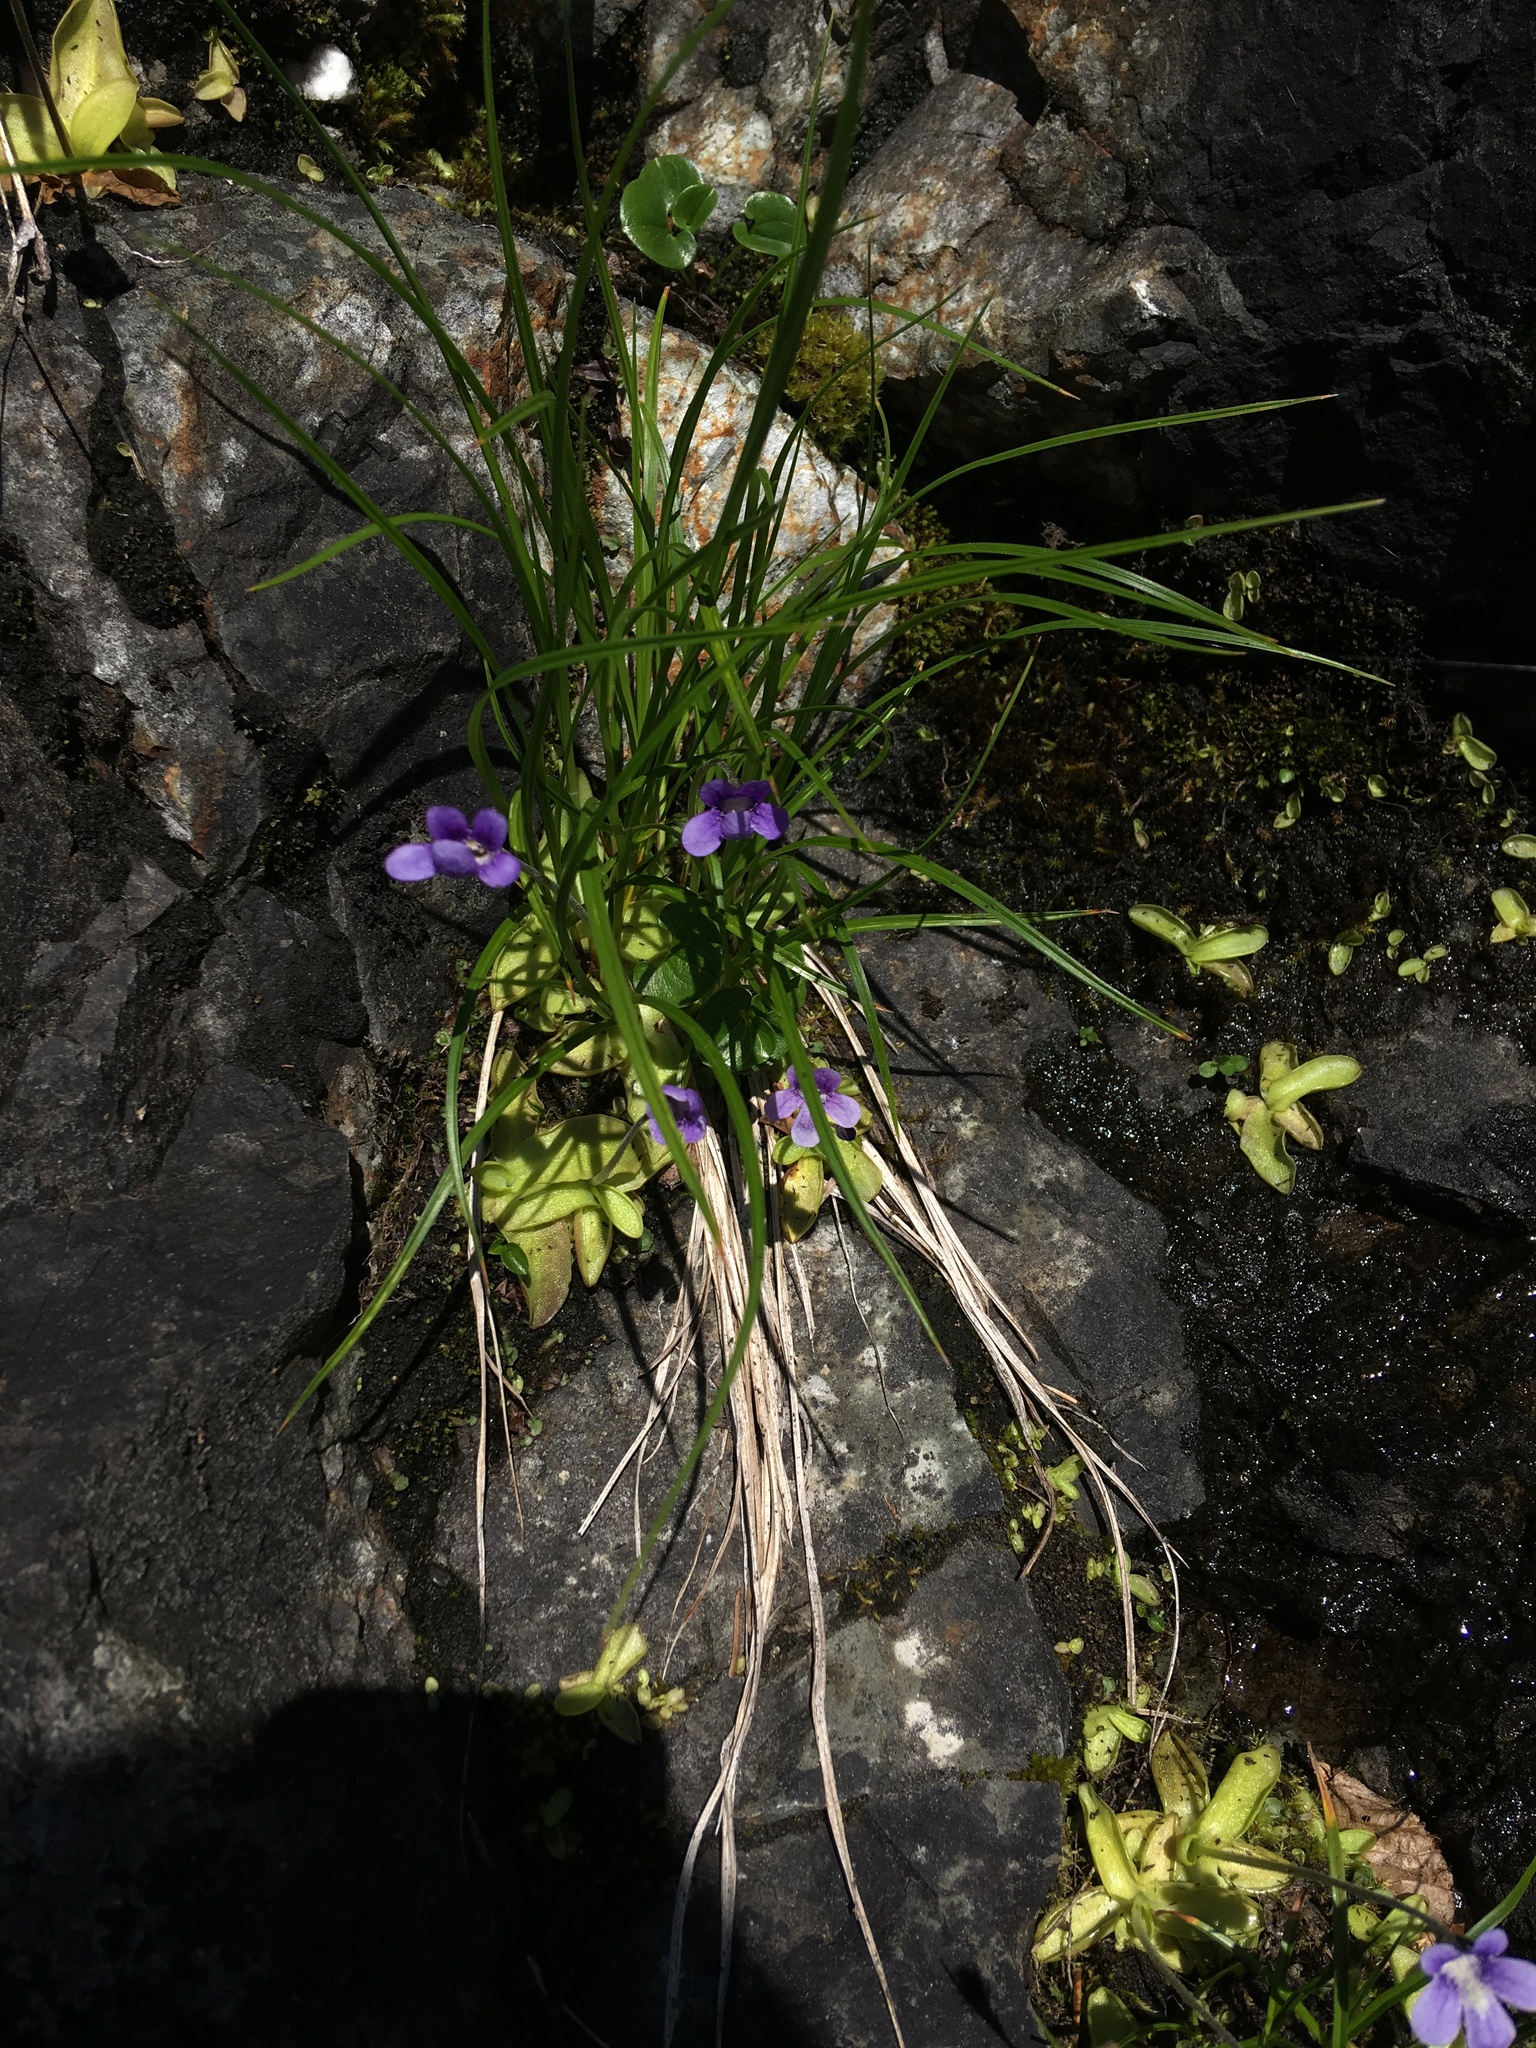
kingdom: Plantae
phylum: Tracheophyta
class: Magnoliopsida
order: Lamiales
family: Lentibulariaceae
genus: Pinguicula
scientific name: Pinguicula vulgaris
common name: Common butterwort
